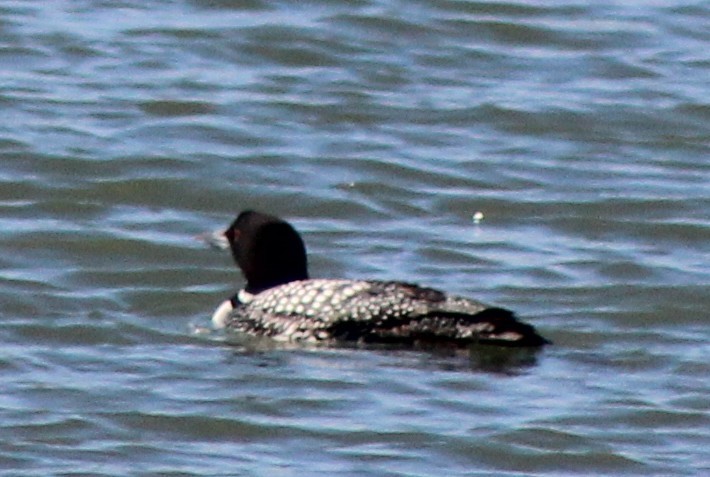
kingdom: Animalia
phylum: Chordata
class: Aves
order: Gaviiformes
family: Gaviidae
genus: Gavia
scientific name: Gavia immer
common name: Common loon
